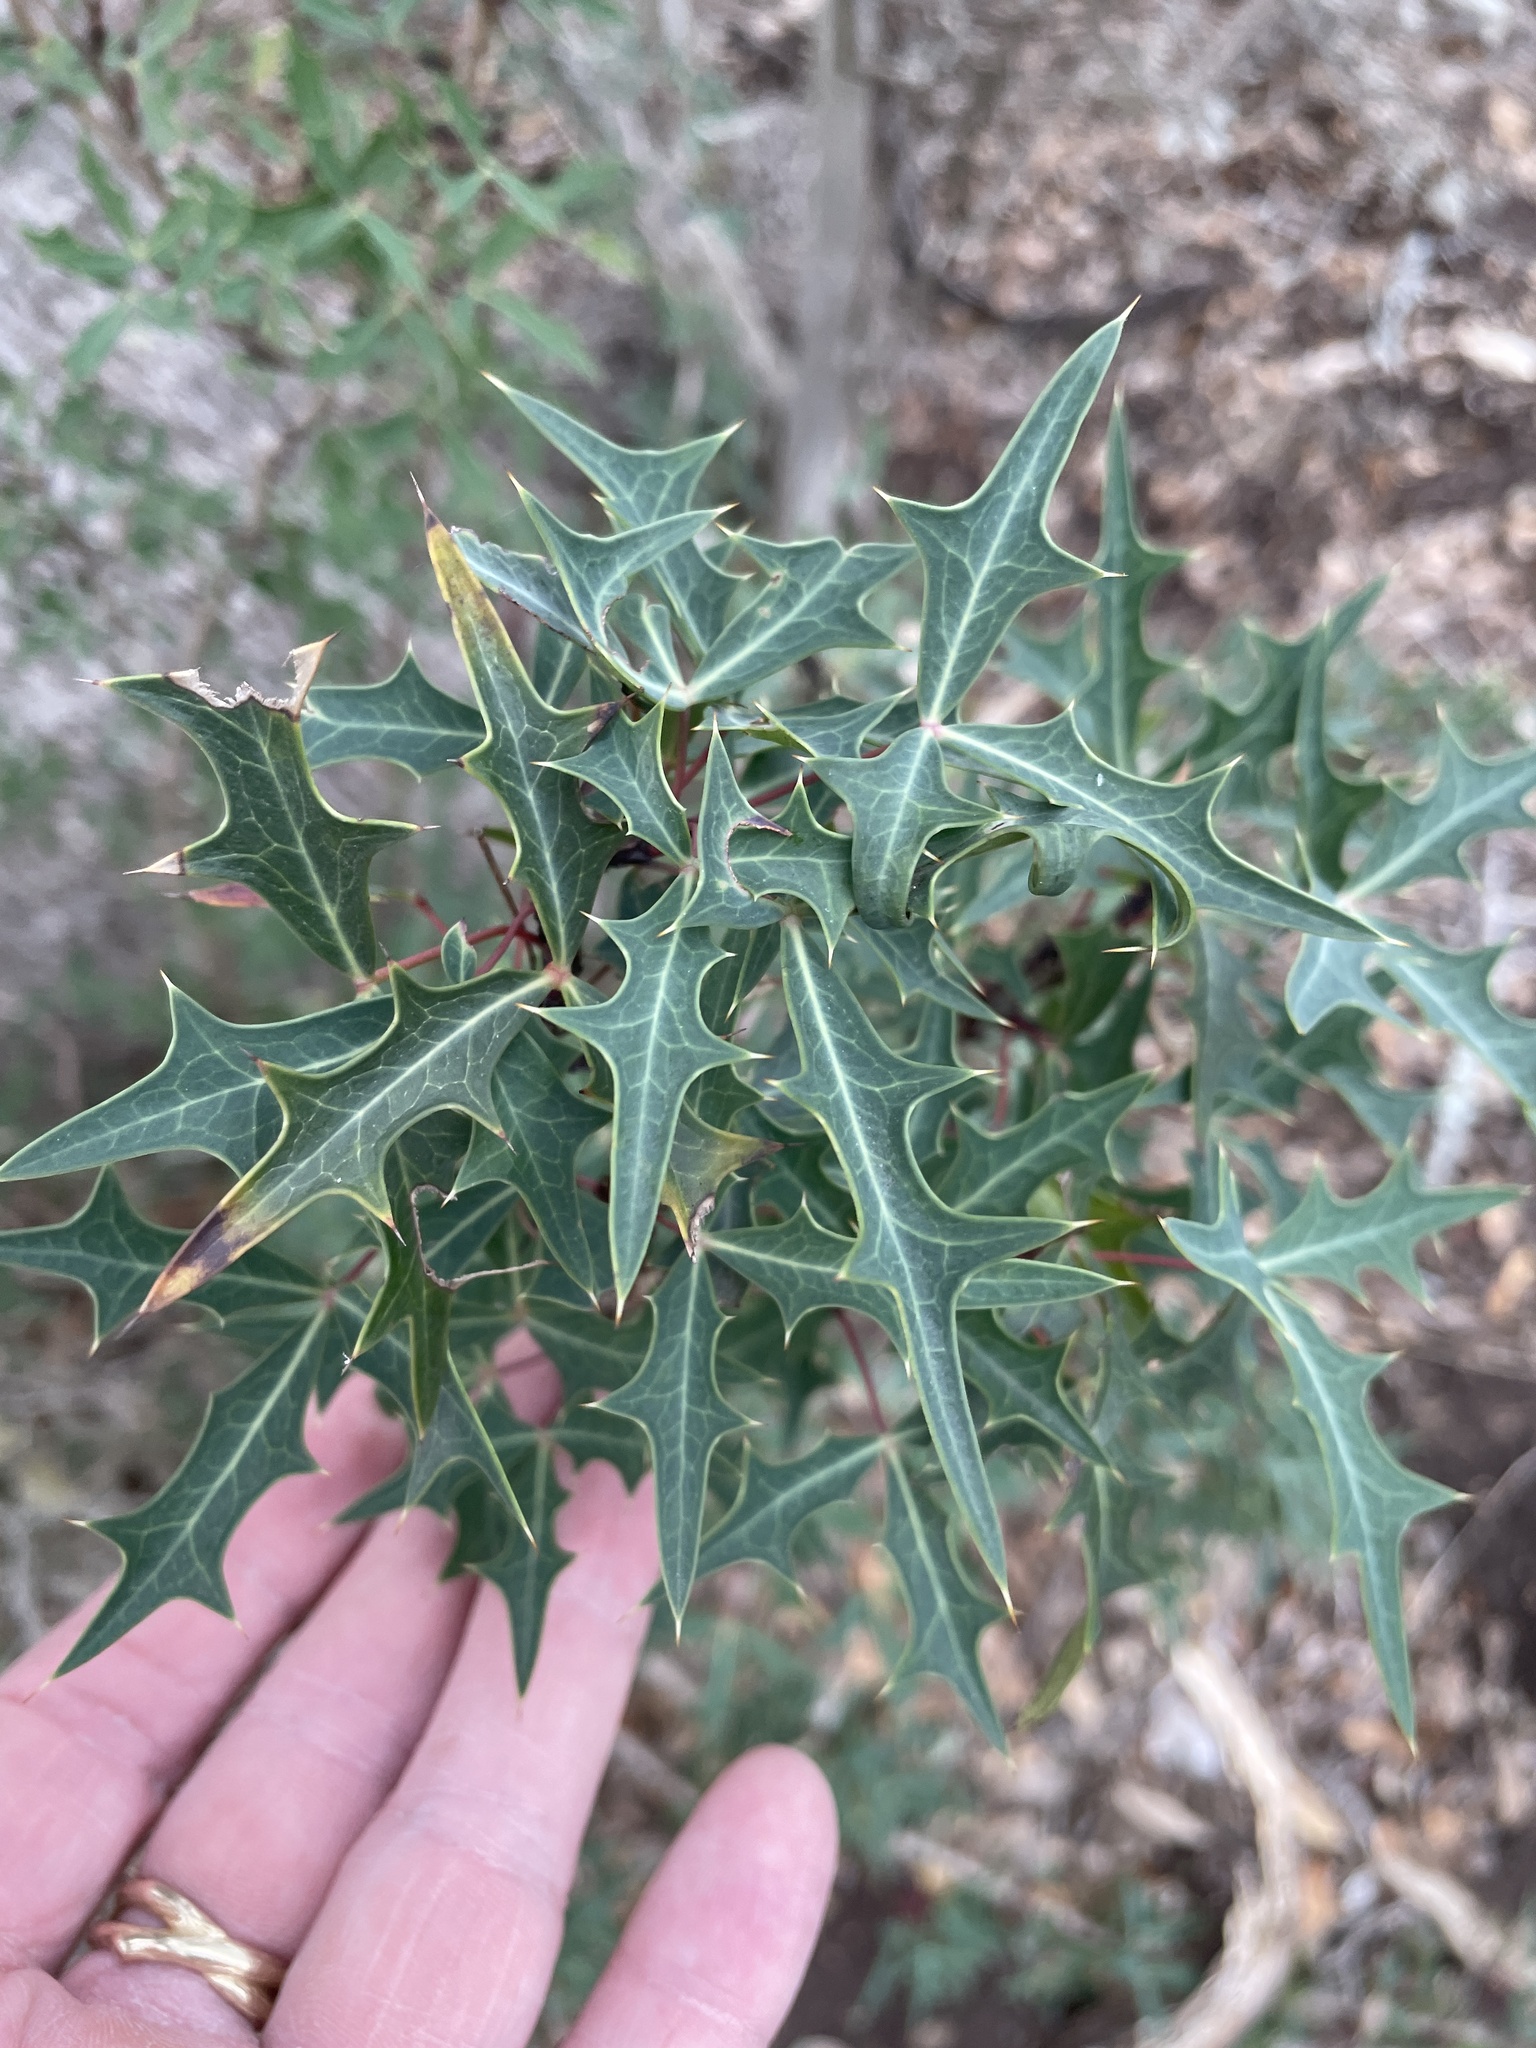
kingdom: Plantae
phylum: Tracheophyta
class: Magnoliopsida
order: Ranunculales
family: Berberidaceae
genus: Alloberberis
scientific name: Alloberberis trifoliolata
